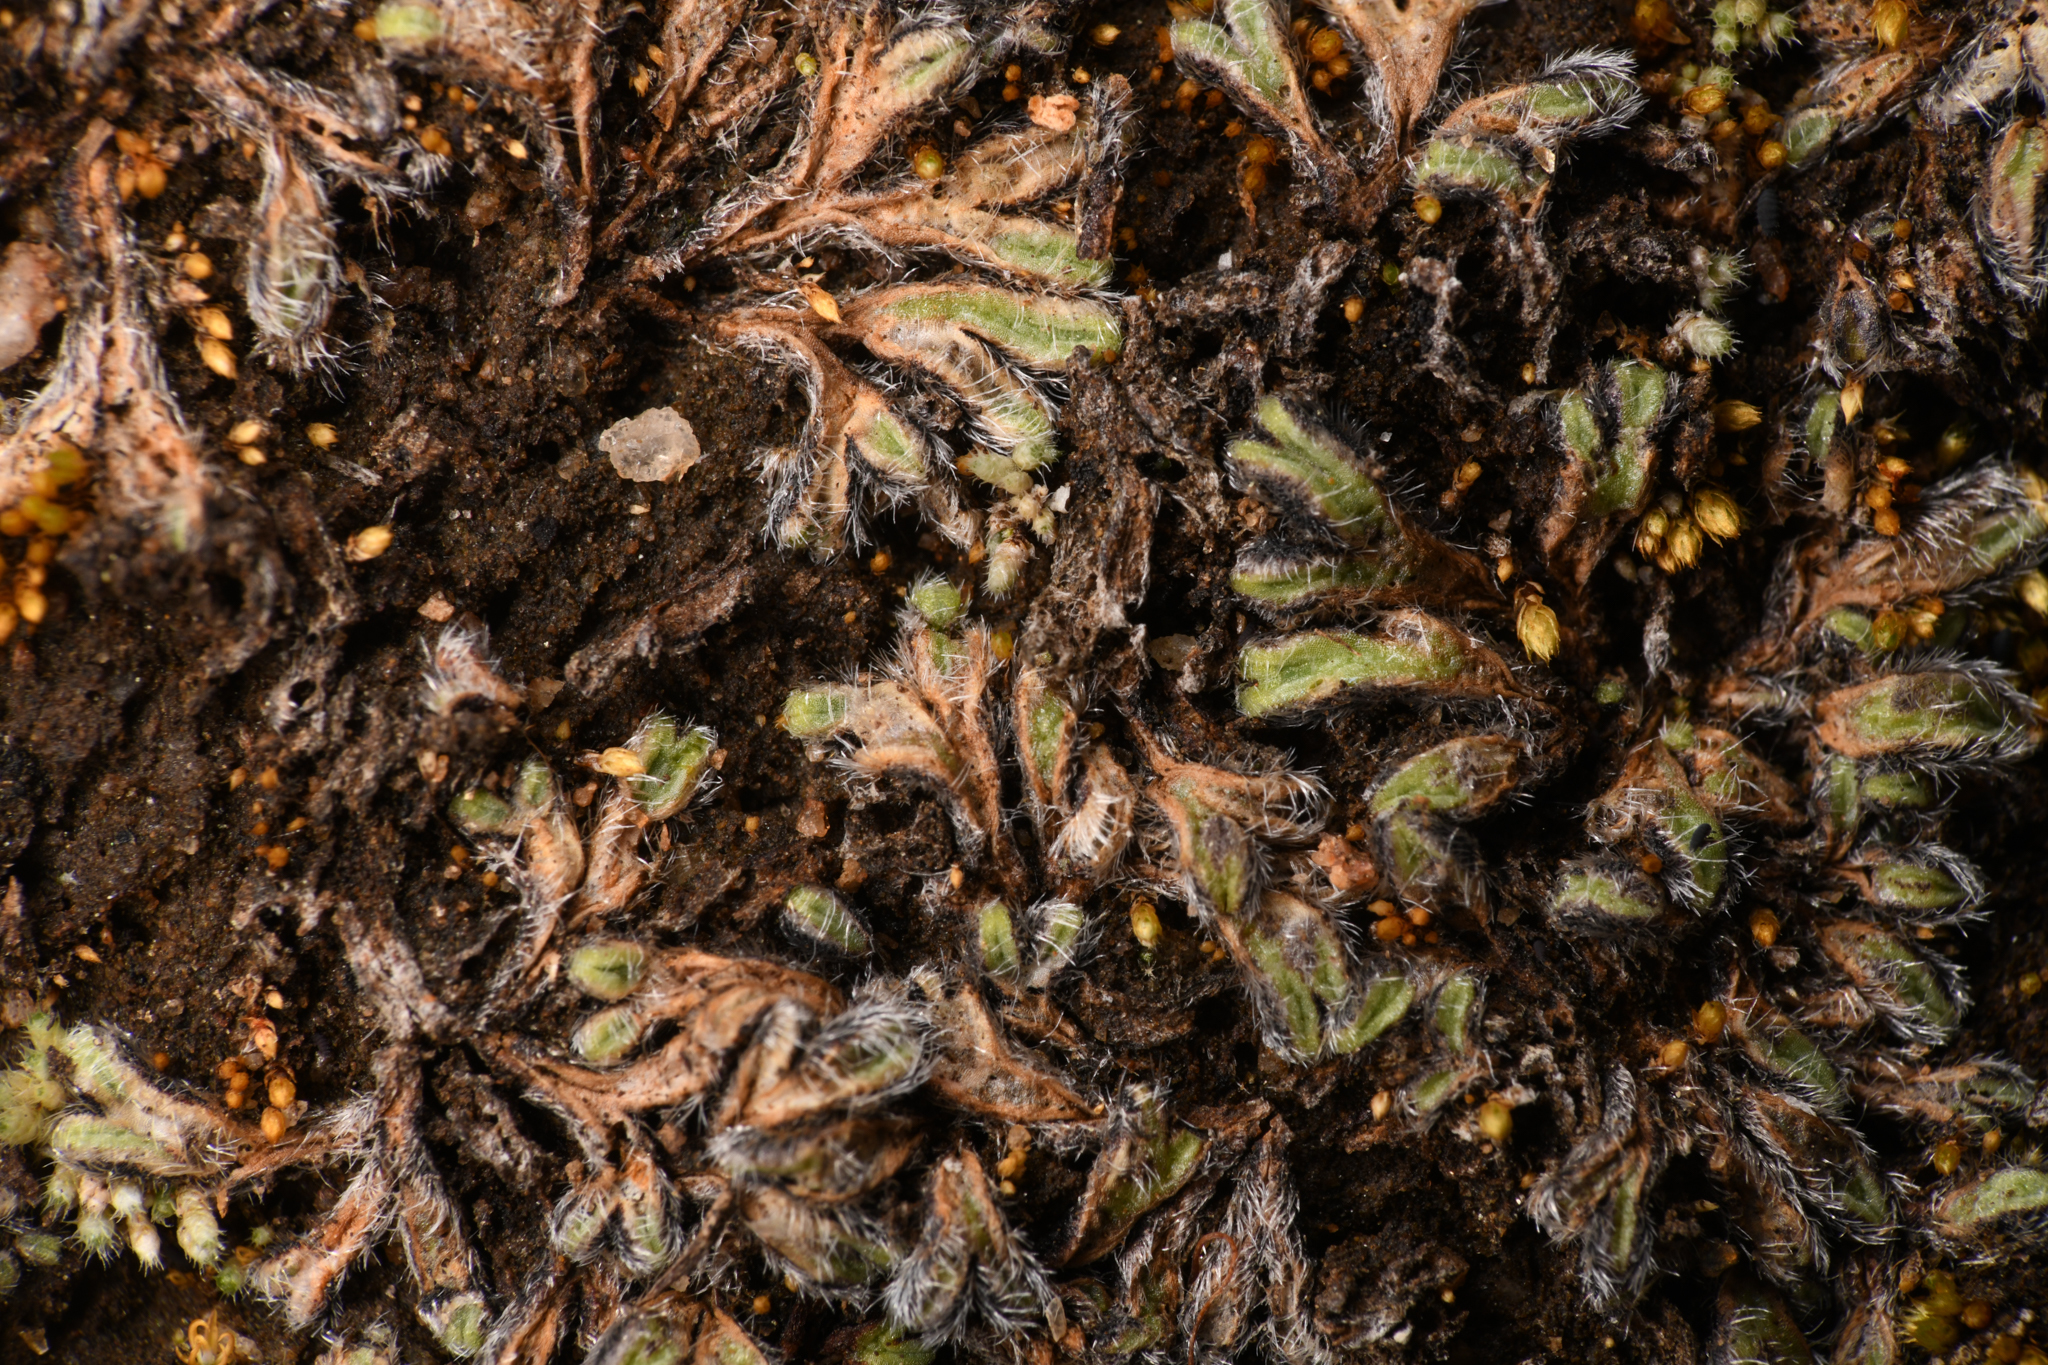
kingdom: Plantae
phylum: Marchantiophyta
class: Marchantiopsida
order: Marchantiales
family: Ricciaceae
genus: Riccia
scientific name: Riccia trichocarpa
